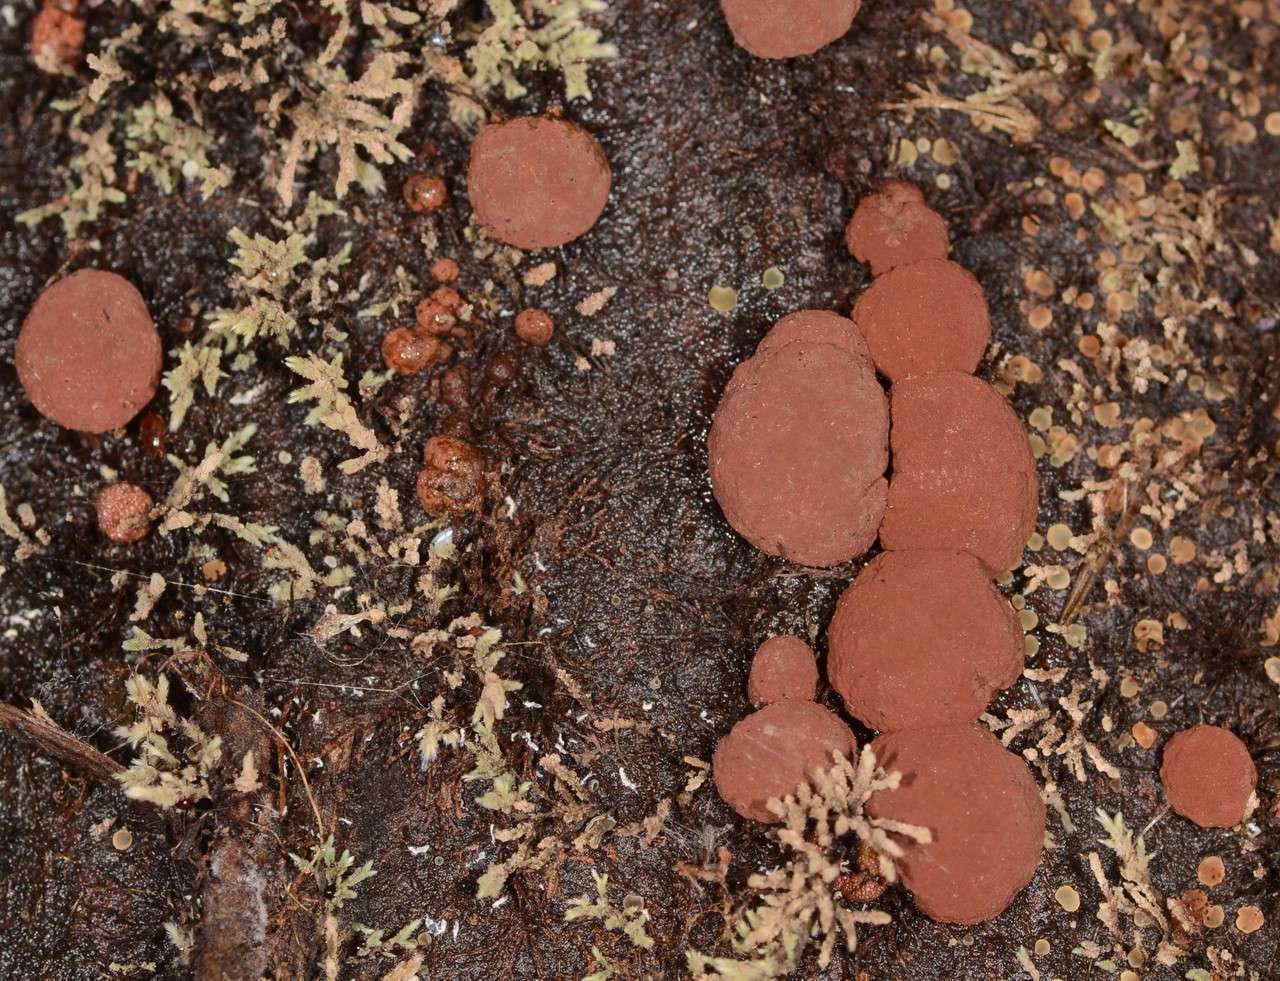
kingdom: Fungi
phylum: Ascomycota
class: Sordariomycetes
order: Xylariales
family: Hypoxylaceae
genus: Hypoxylon
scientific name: Hypoxylon howeanum
